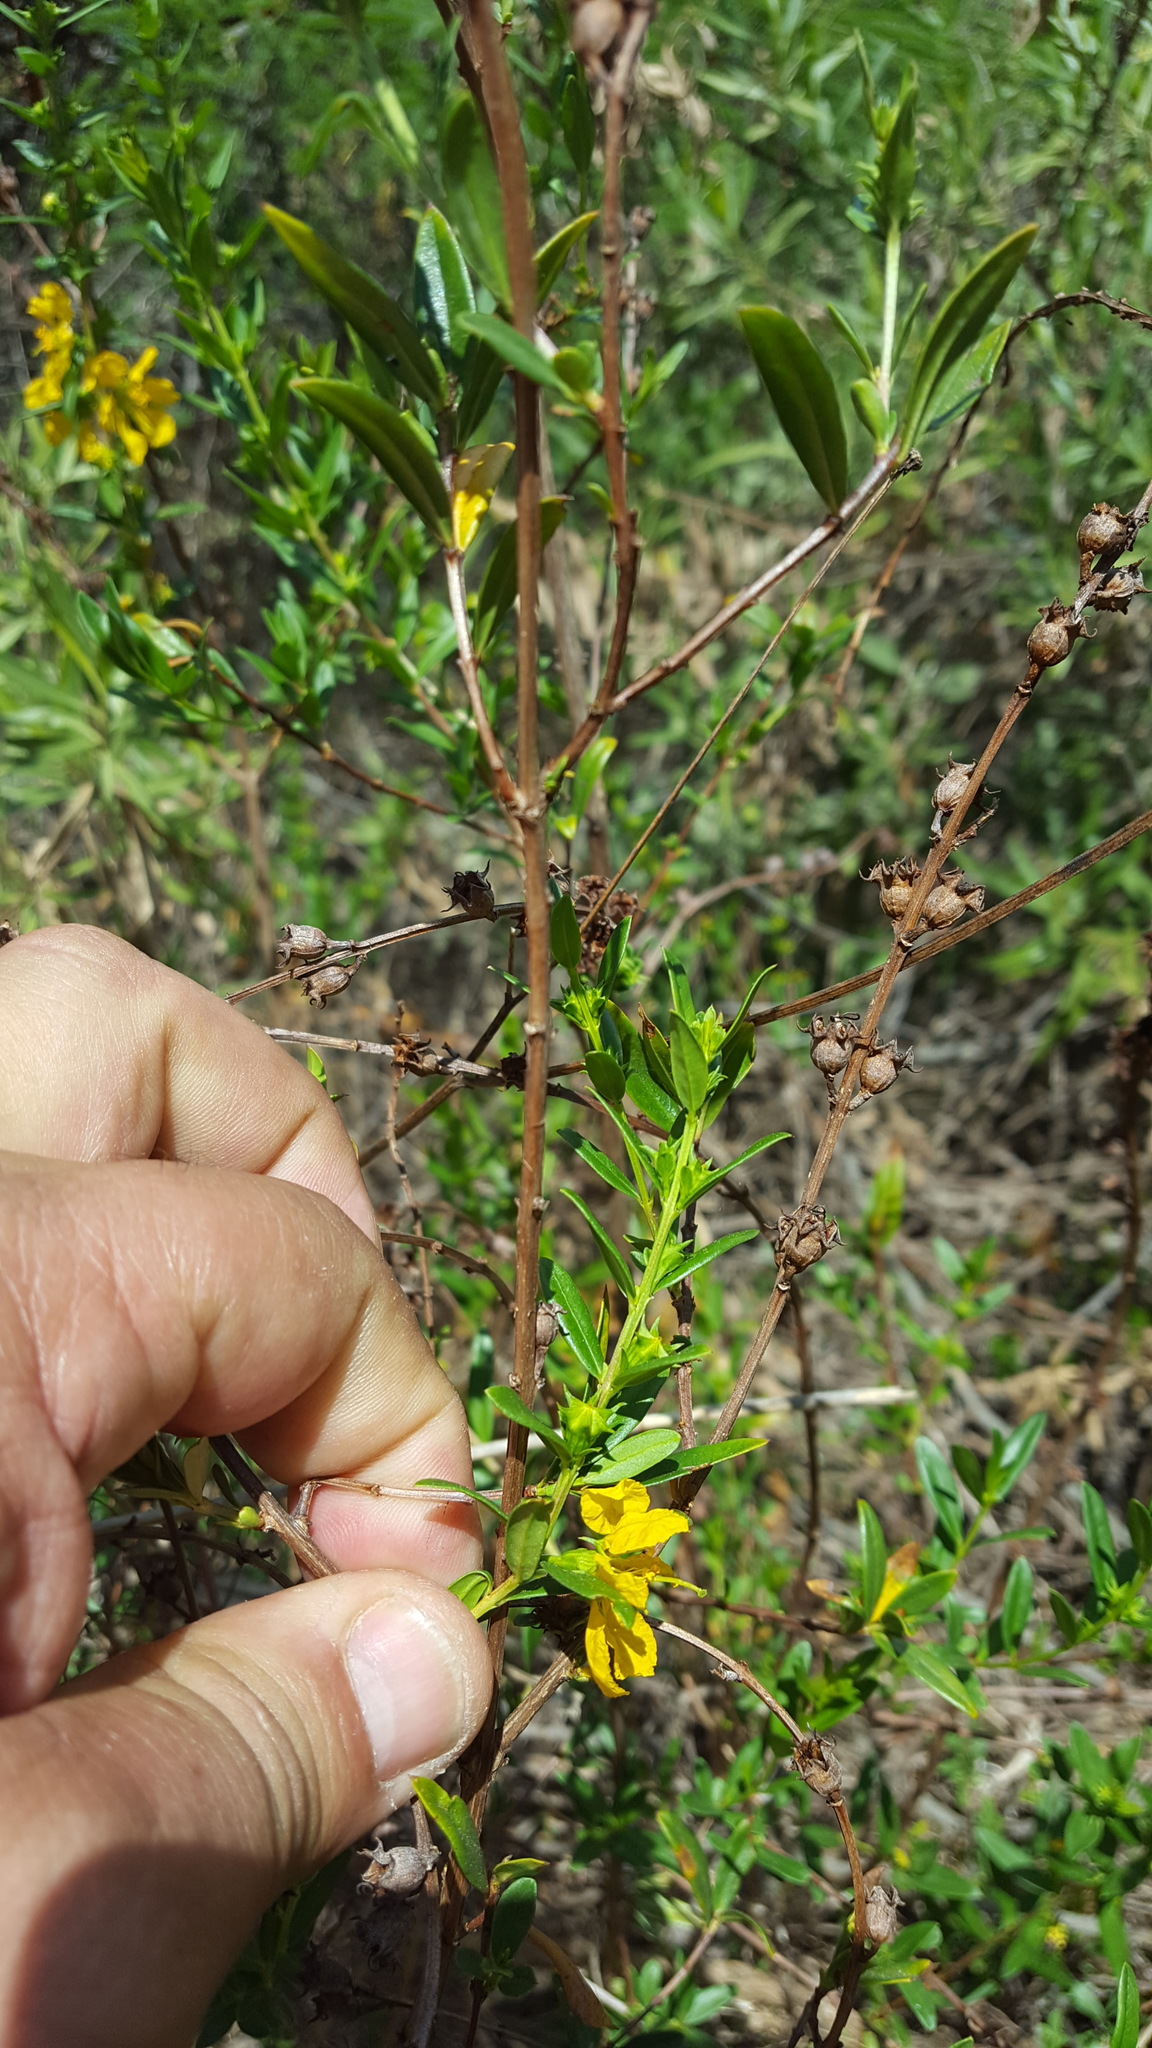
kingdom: Plantae
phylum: Tracheophyta
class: Magnoliopsida
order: Myrtales
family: Lythraceae
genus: Heimia
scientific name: Heimia salicifolia
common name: Willow-leaf heimia
